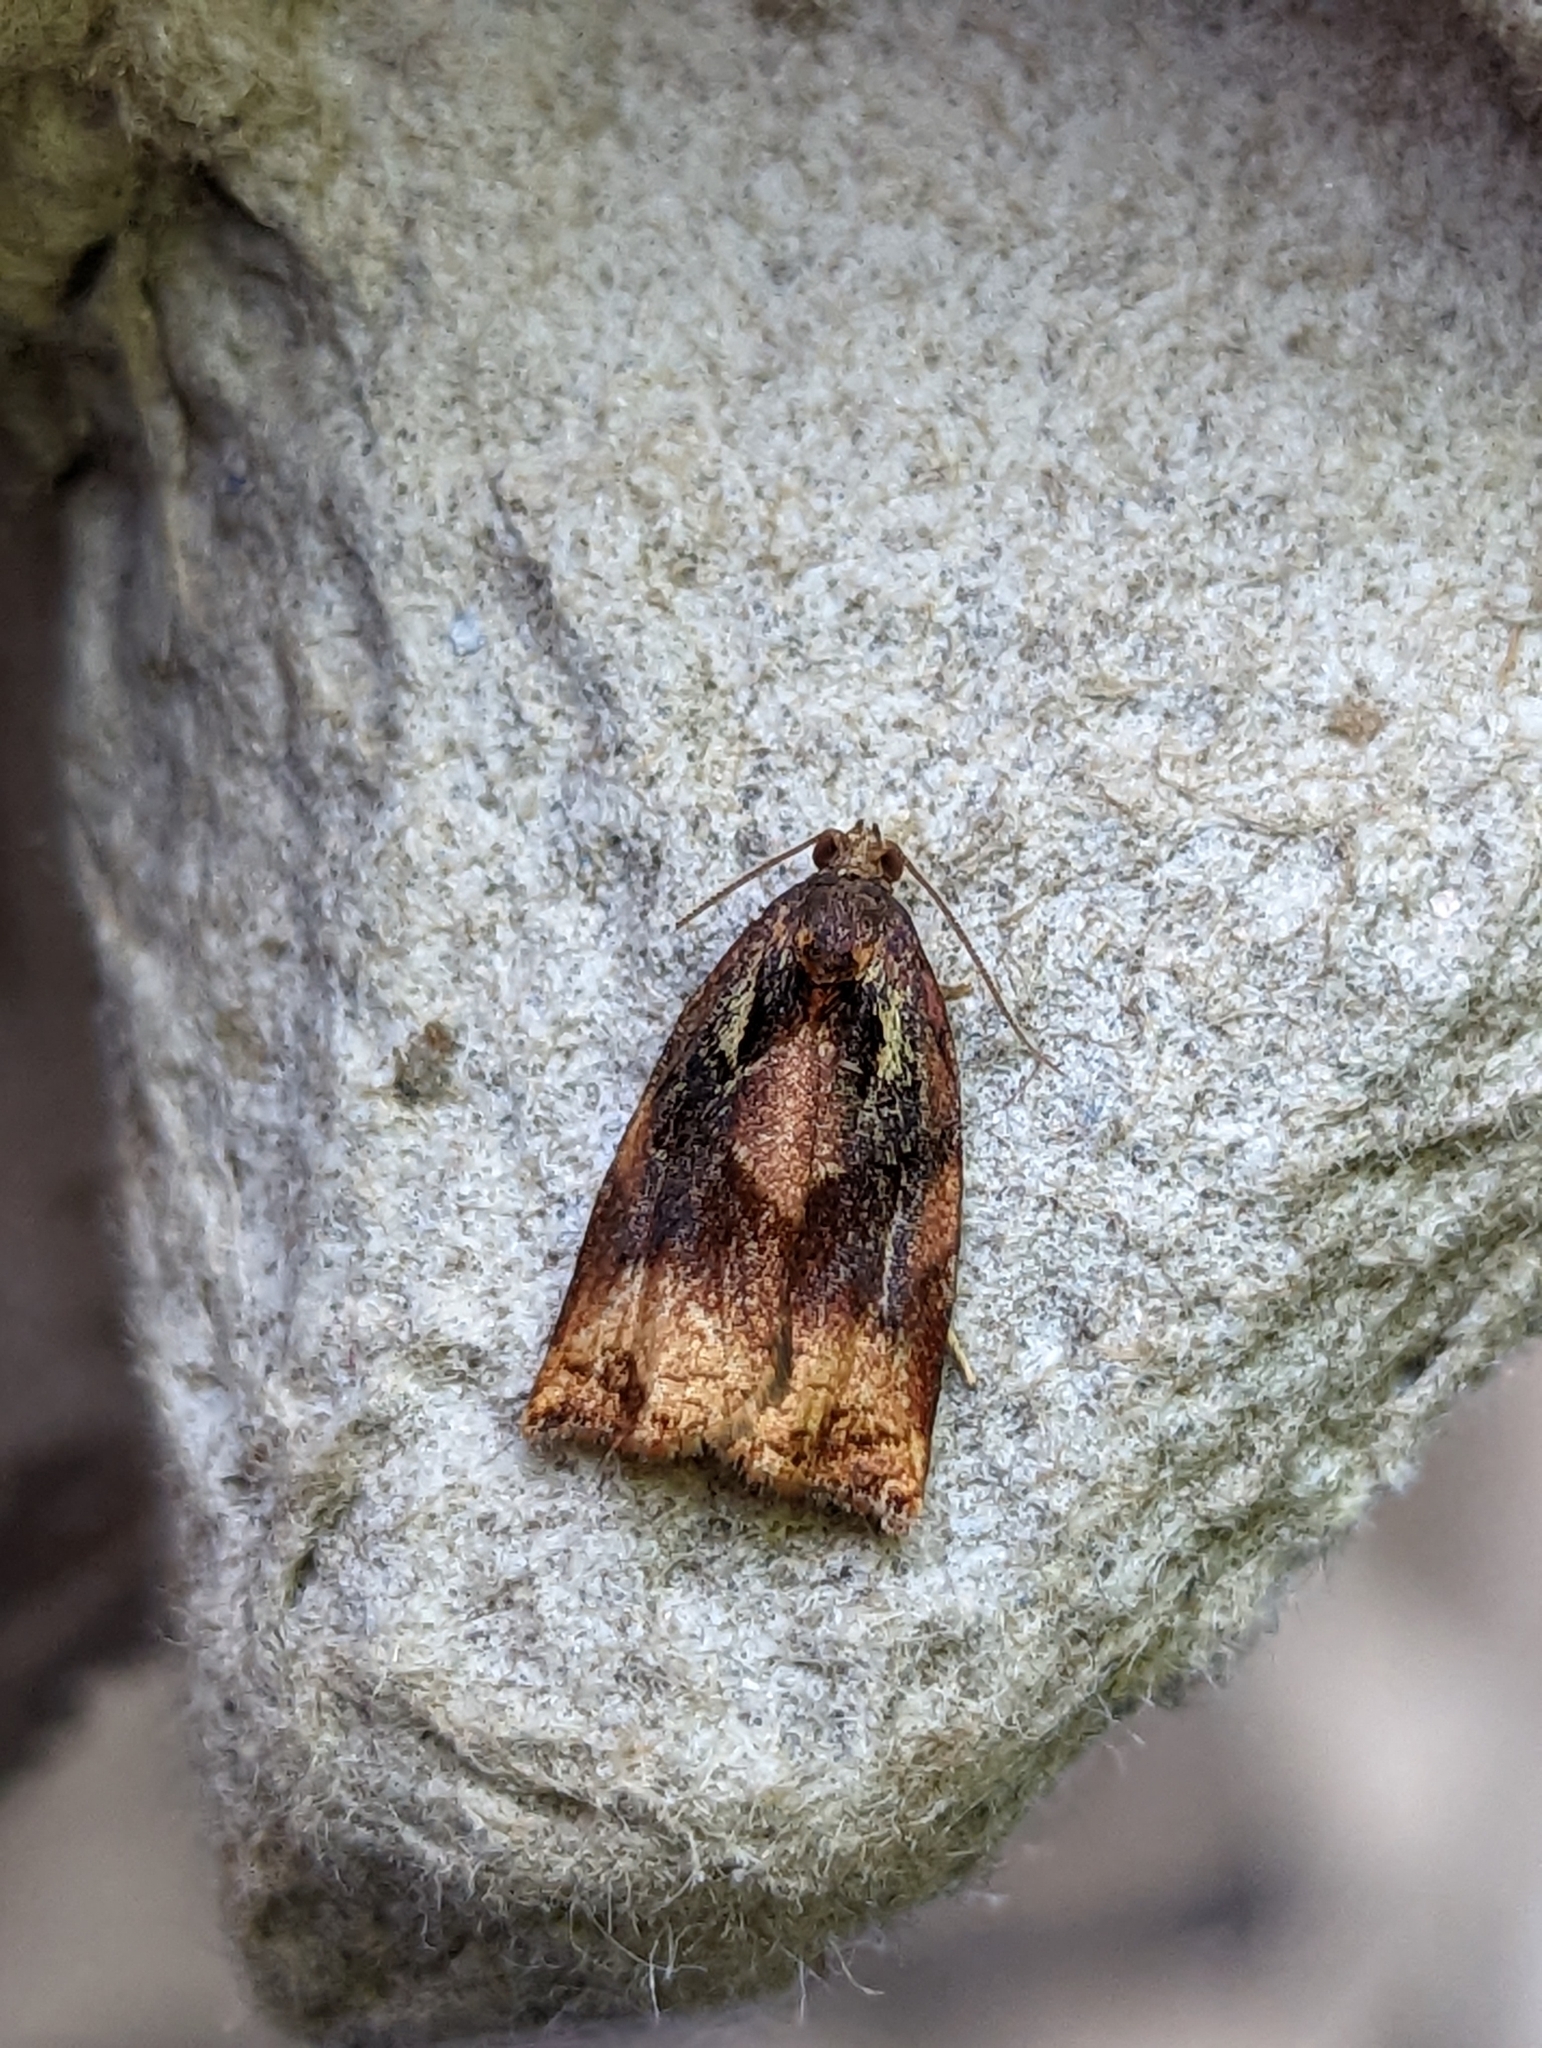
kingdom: Animalia
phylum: Arthropoda
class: Insecta
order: Lepidoptera
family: Tortricidae
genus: Archips
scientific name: Archips podana
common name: Large fruit-tree tortrix
